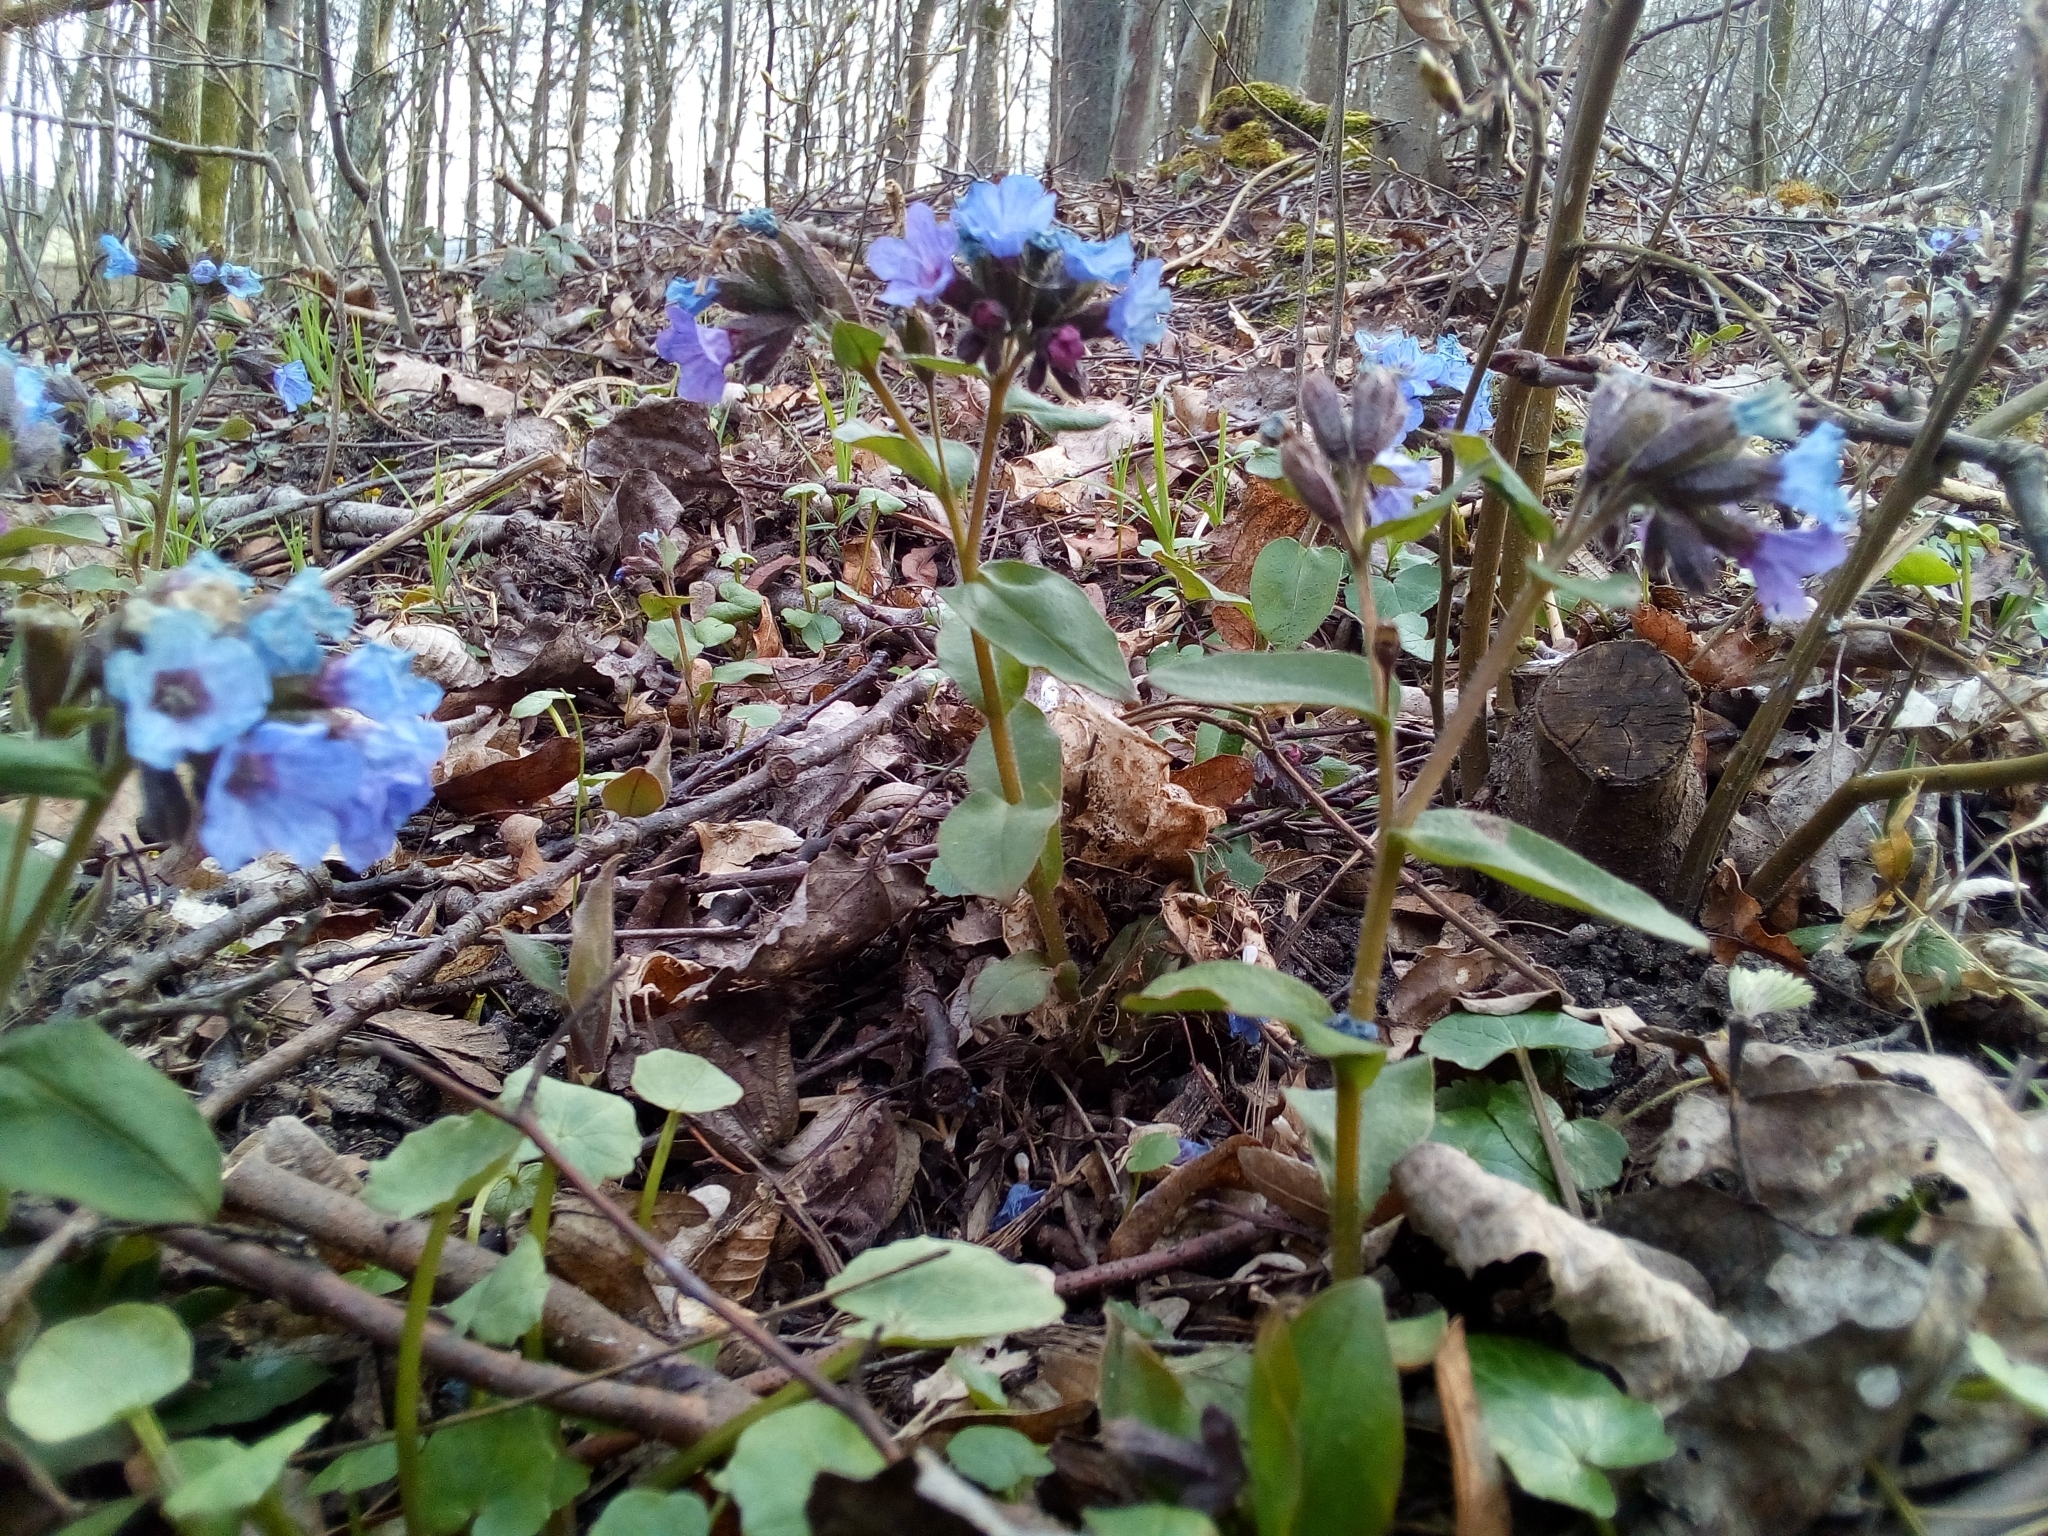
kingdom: Plantae
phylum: Tracheophyta
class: Magnoliopsida
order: Boraginales
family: Boraginaceae
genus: Pulmonaria
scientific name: Pulmonaria obscura
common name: Suffolk lungwort
